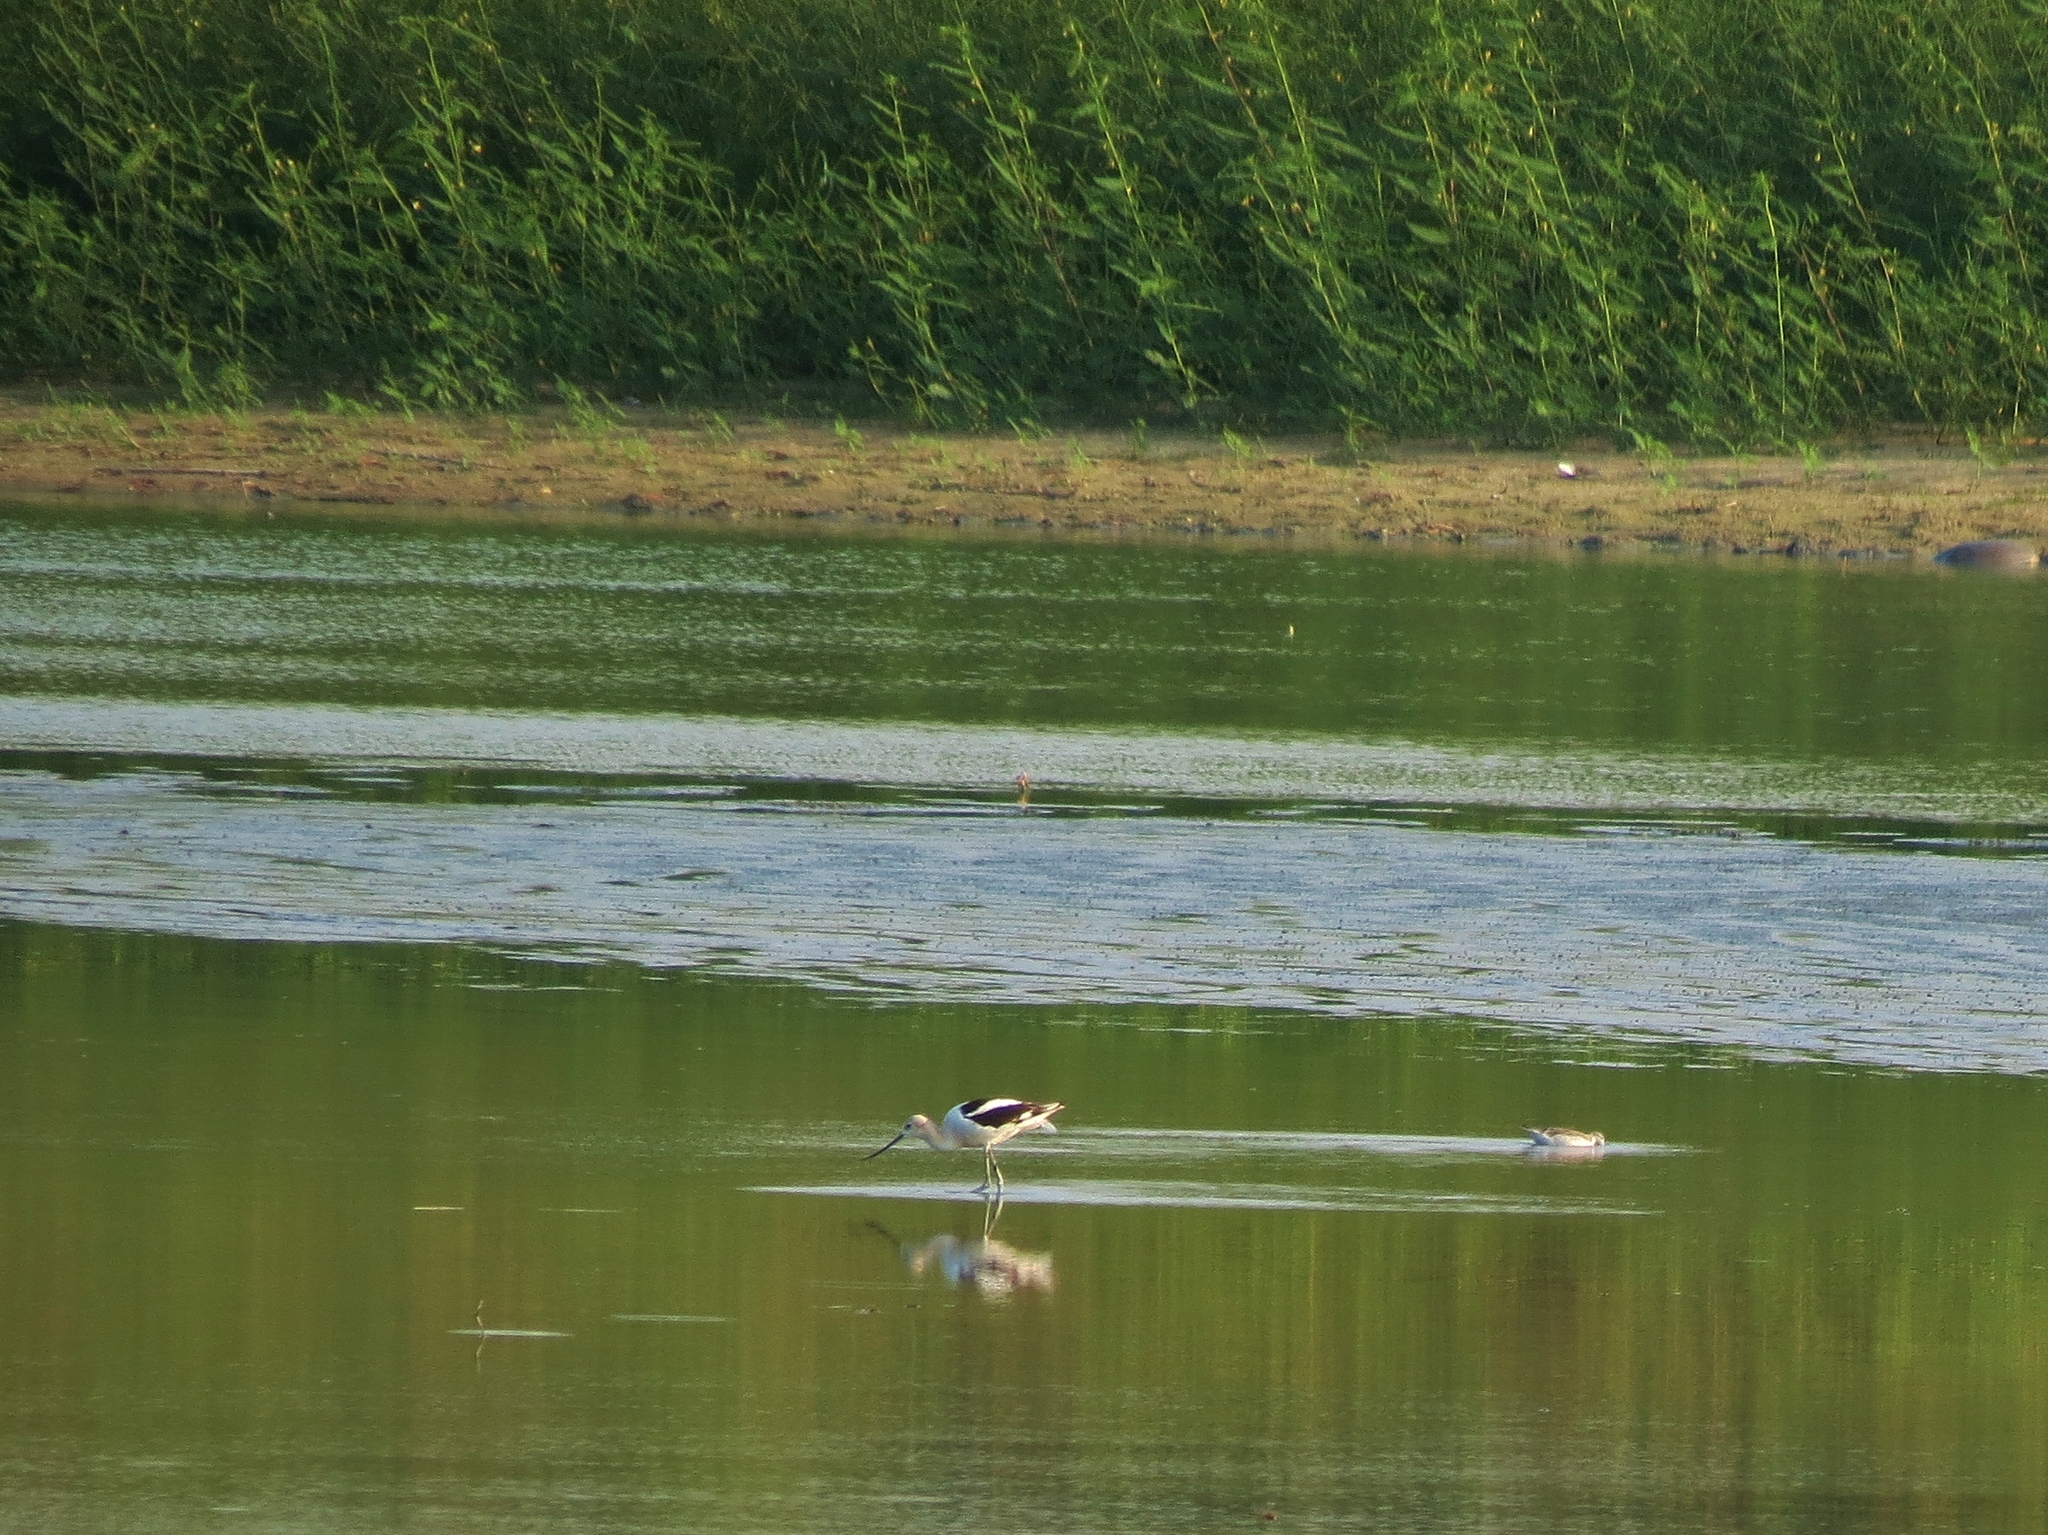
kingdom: Animalia
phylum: Chordata
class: Aves
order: Charadriiformes
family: Recurvirostridae
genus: Recurvirostra
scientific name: Recurvirostra americana
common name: American avocet
